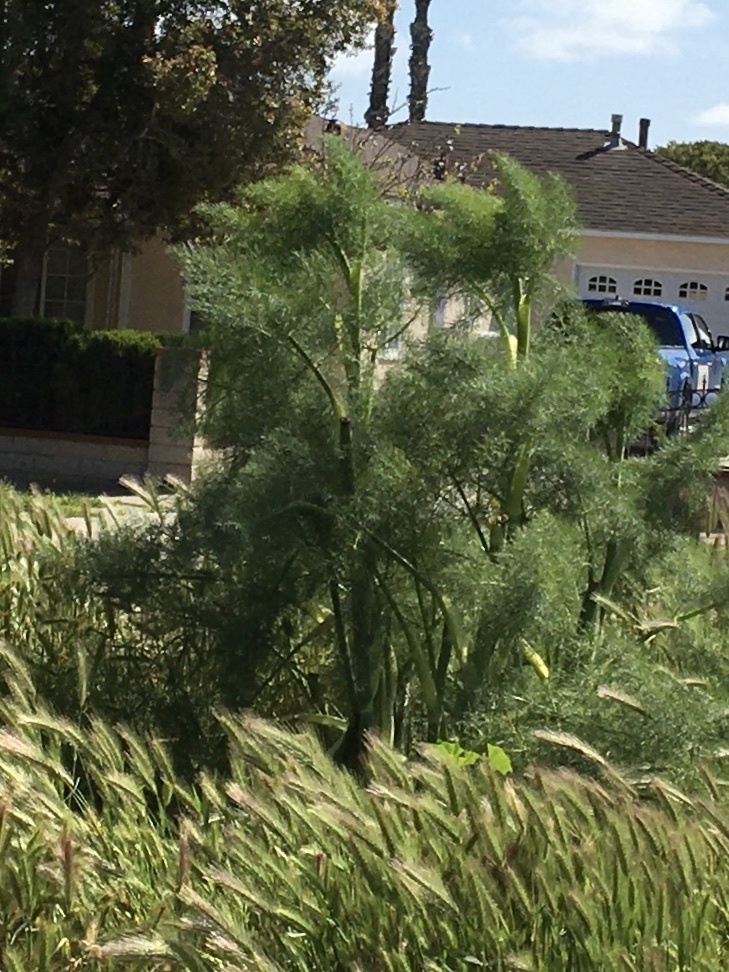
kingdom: Plantae
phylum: Tracheophyta
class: Magnoliopsida
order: Apiales
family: Apiaceae
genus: Foeniculum
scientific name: Foeniculum vulgare
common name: Fennel
